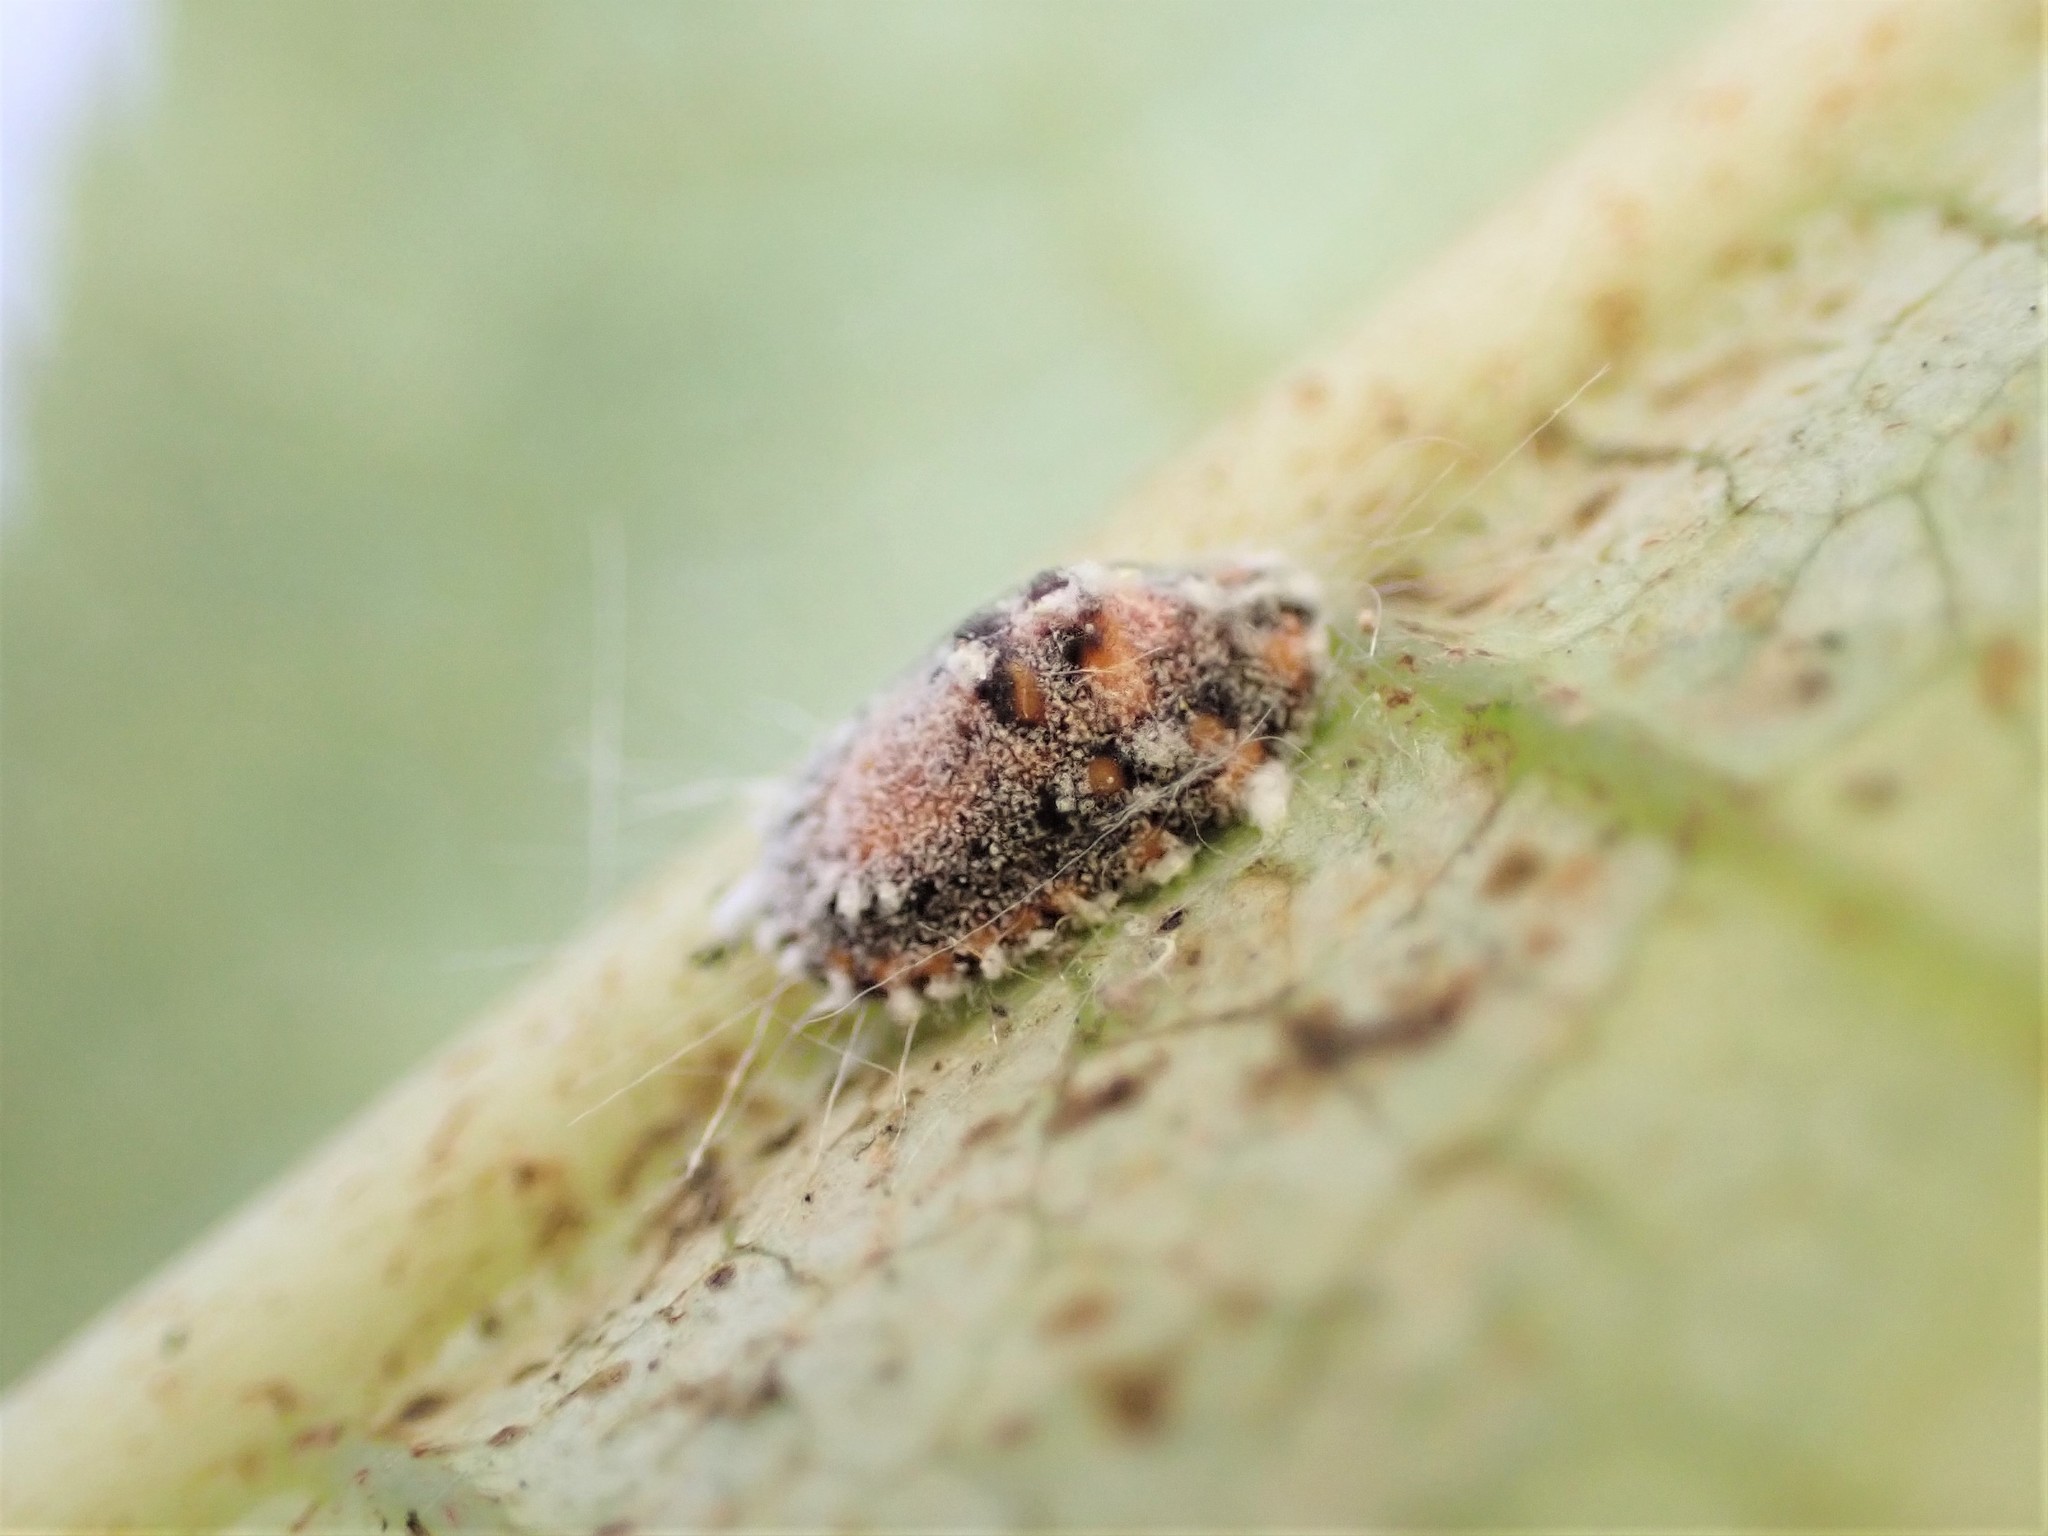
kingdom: Animalia
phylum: Arthropoda
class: Insecta
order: Hemiptera
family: Margarodidae
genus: Icerya
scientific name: Icerya purchasi
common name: Cottony cushion scale
